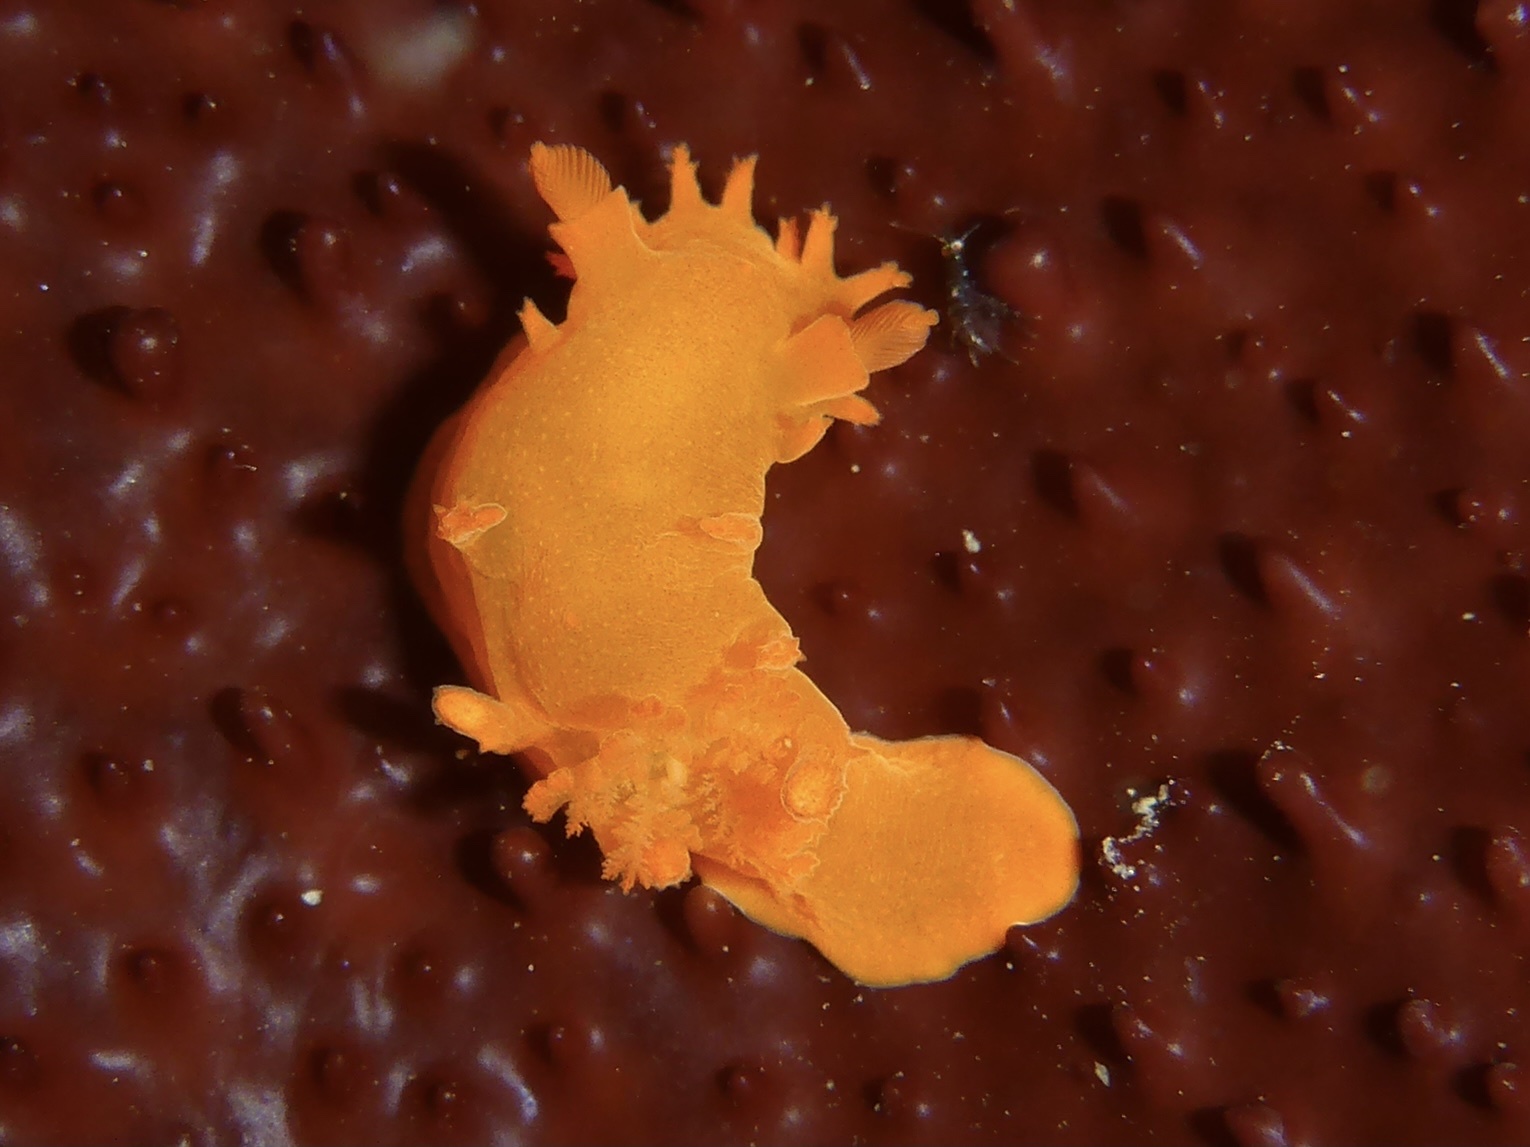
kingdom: Animalia
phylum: Mollusca
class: Gastropoda
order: Nudibranchia
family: Polyceridae
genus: Triopha
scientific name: Triopha maculata
